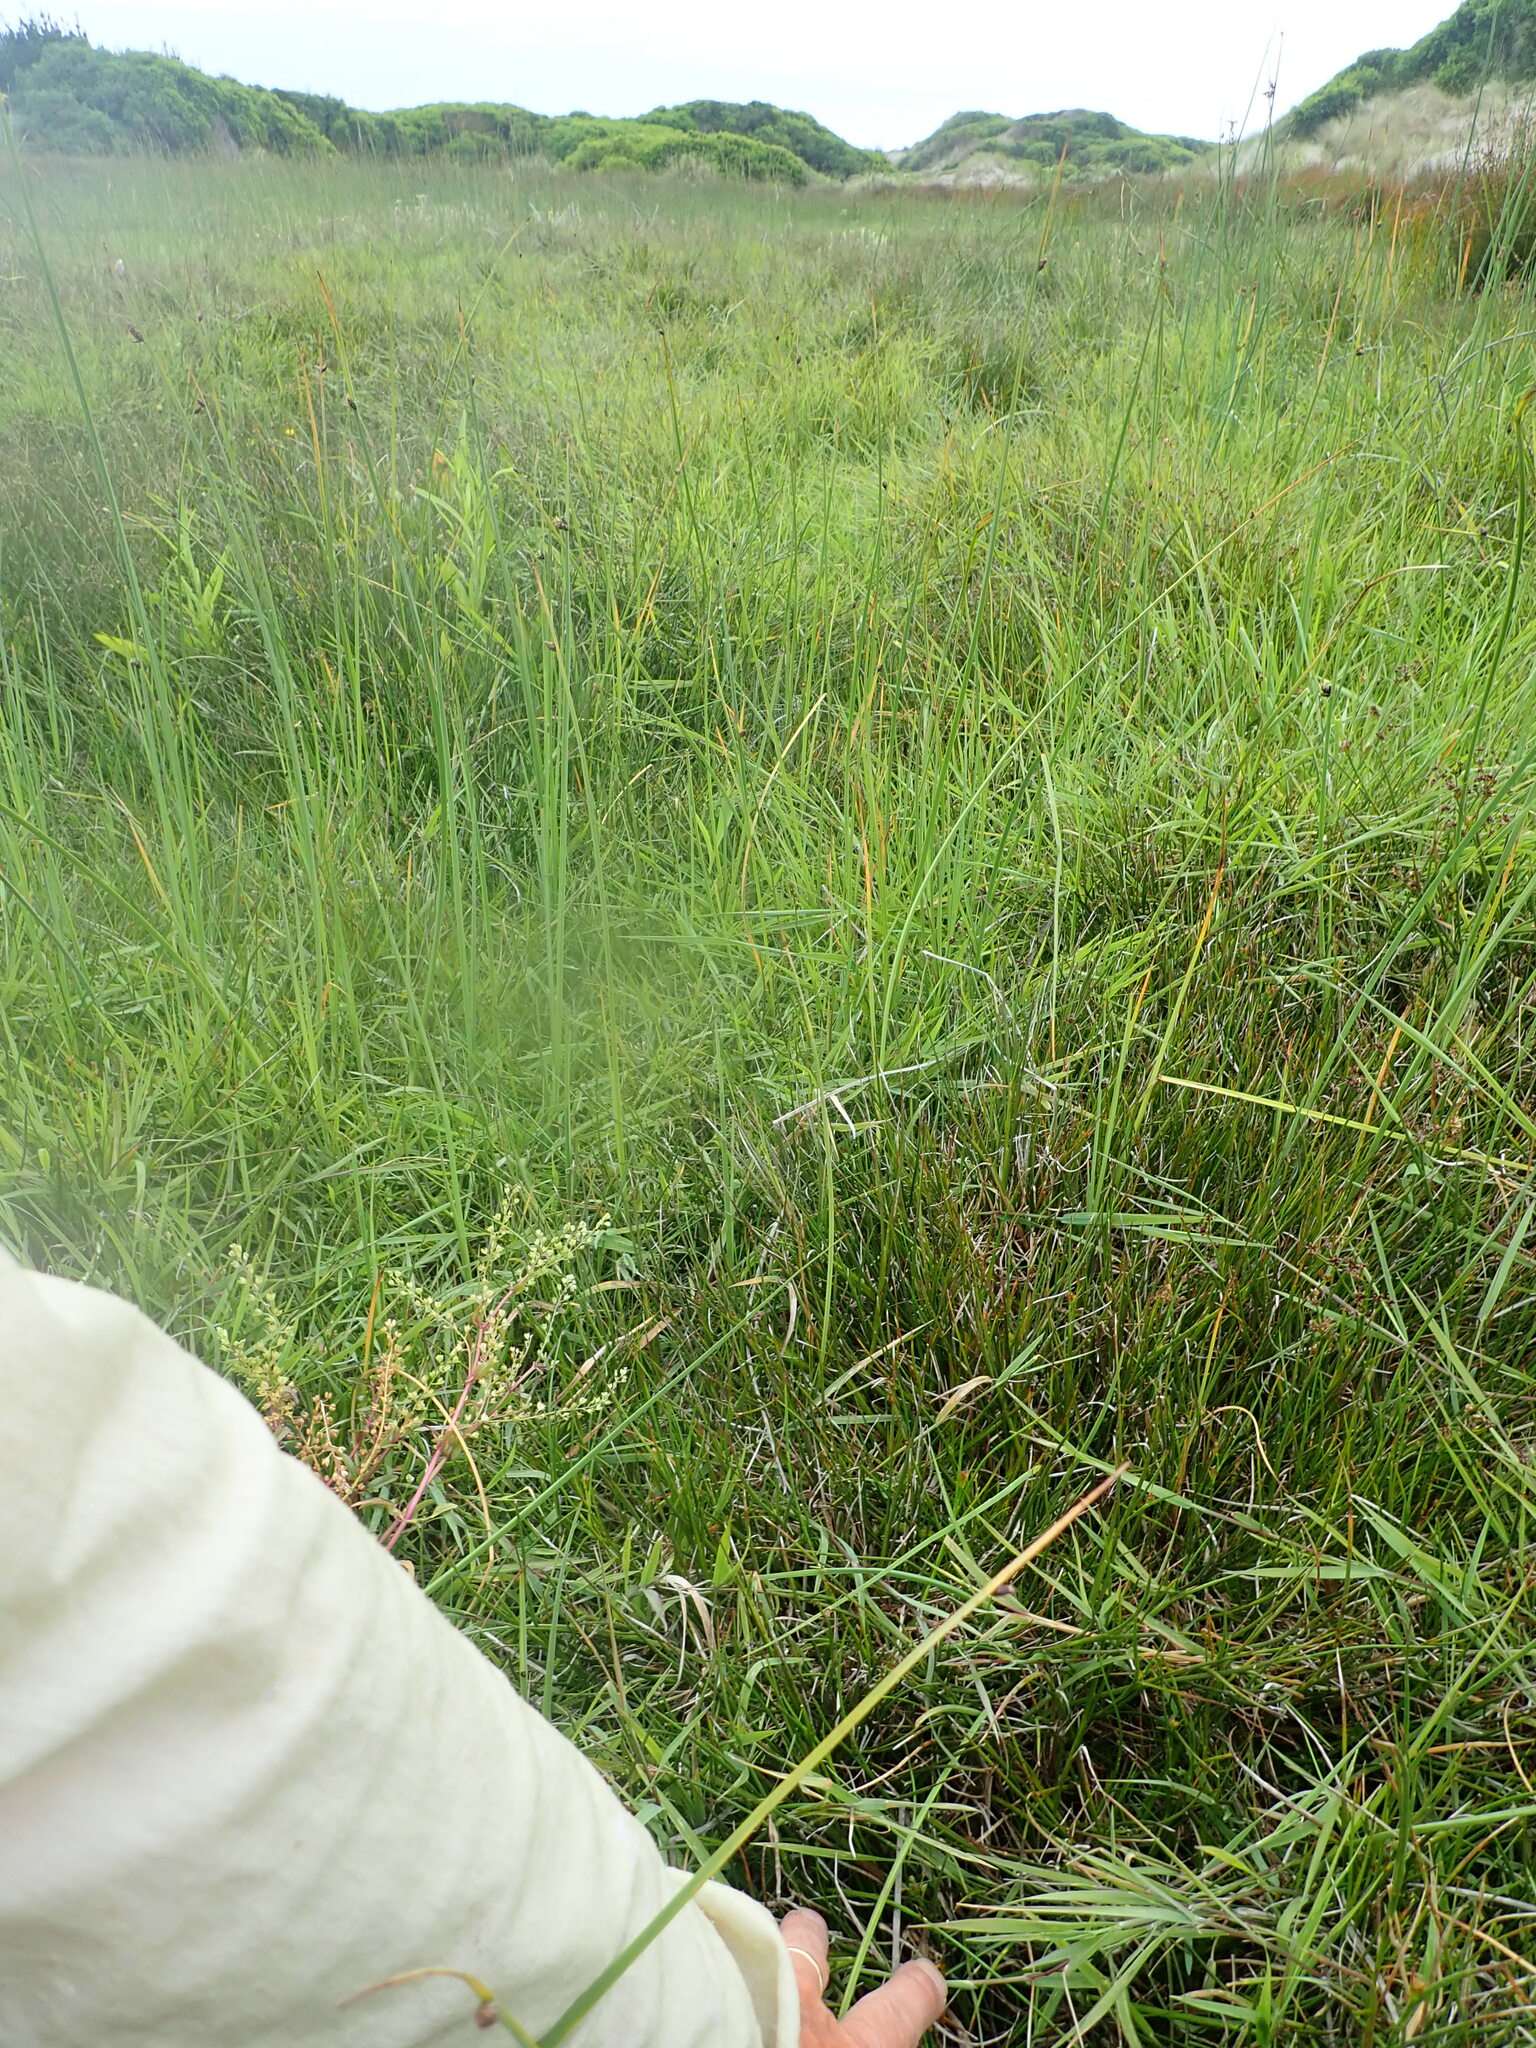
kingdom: Plantae
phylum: Tracheophyta
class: Liliopsida
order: Poales
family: Juncaceae
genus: Juncus
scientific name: Juncus articulatus
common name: Jointed rush
